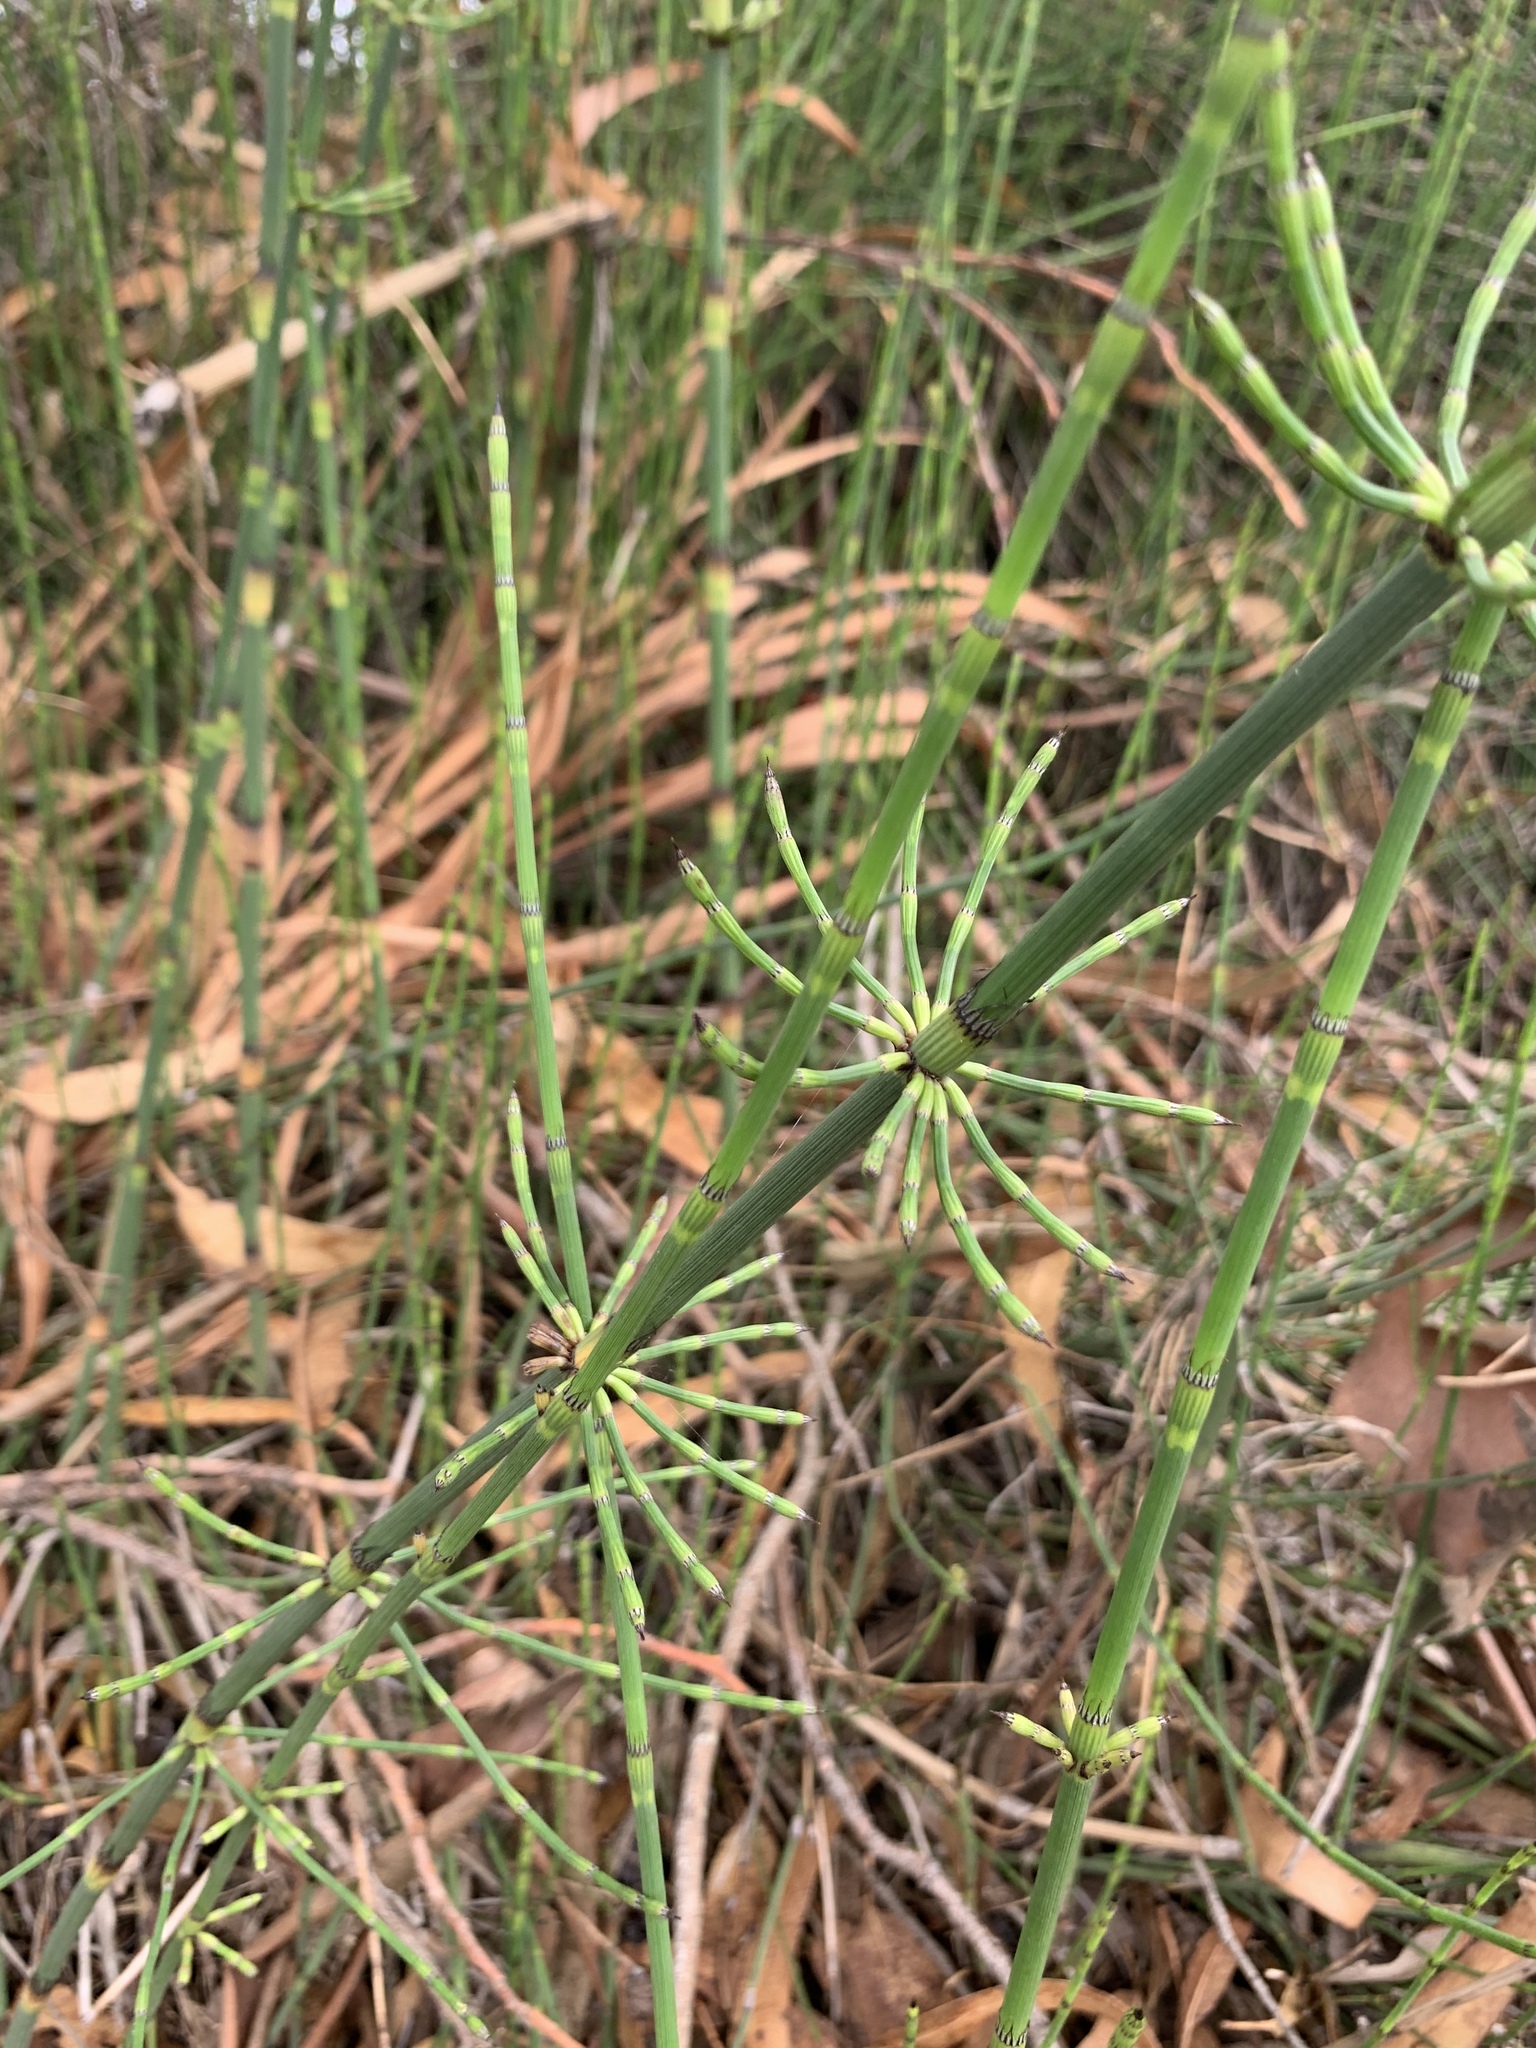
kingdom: Plantae
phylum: Tracheophyta
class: Polypodiopsida
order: Equisetales
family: Equisetaceae
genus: Equisetum
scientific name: Equisetum giganteum
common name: Giant horsetail
